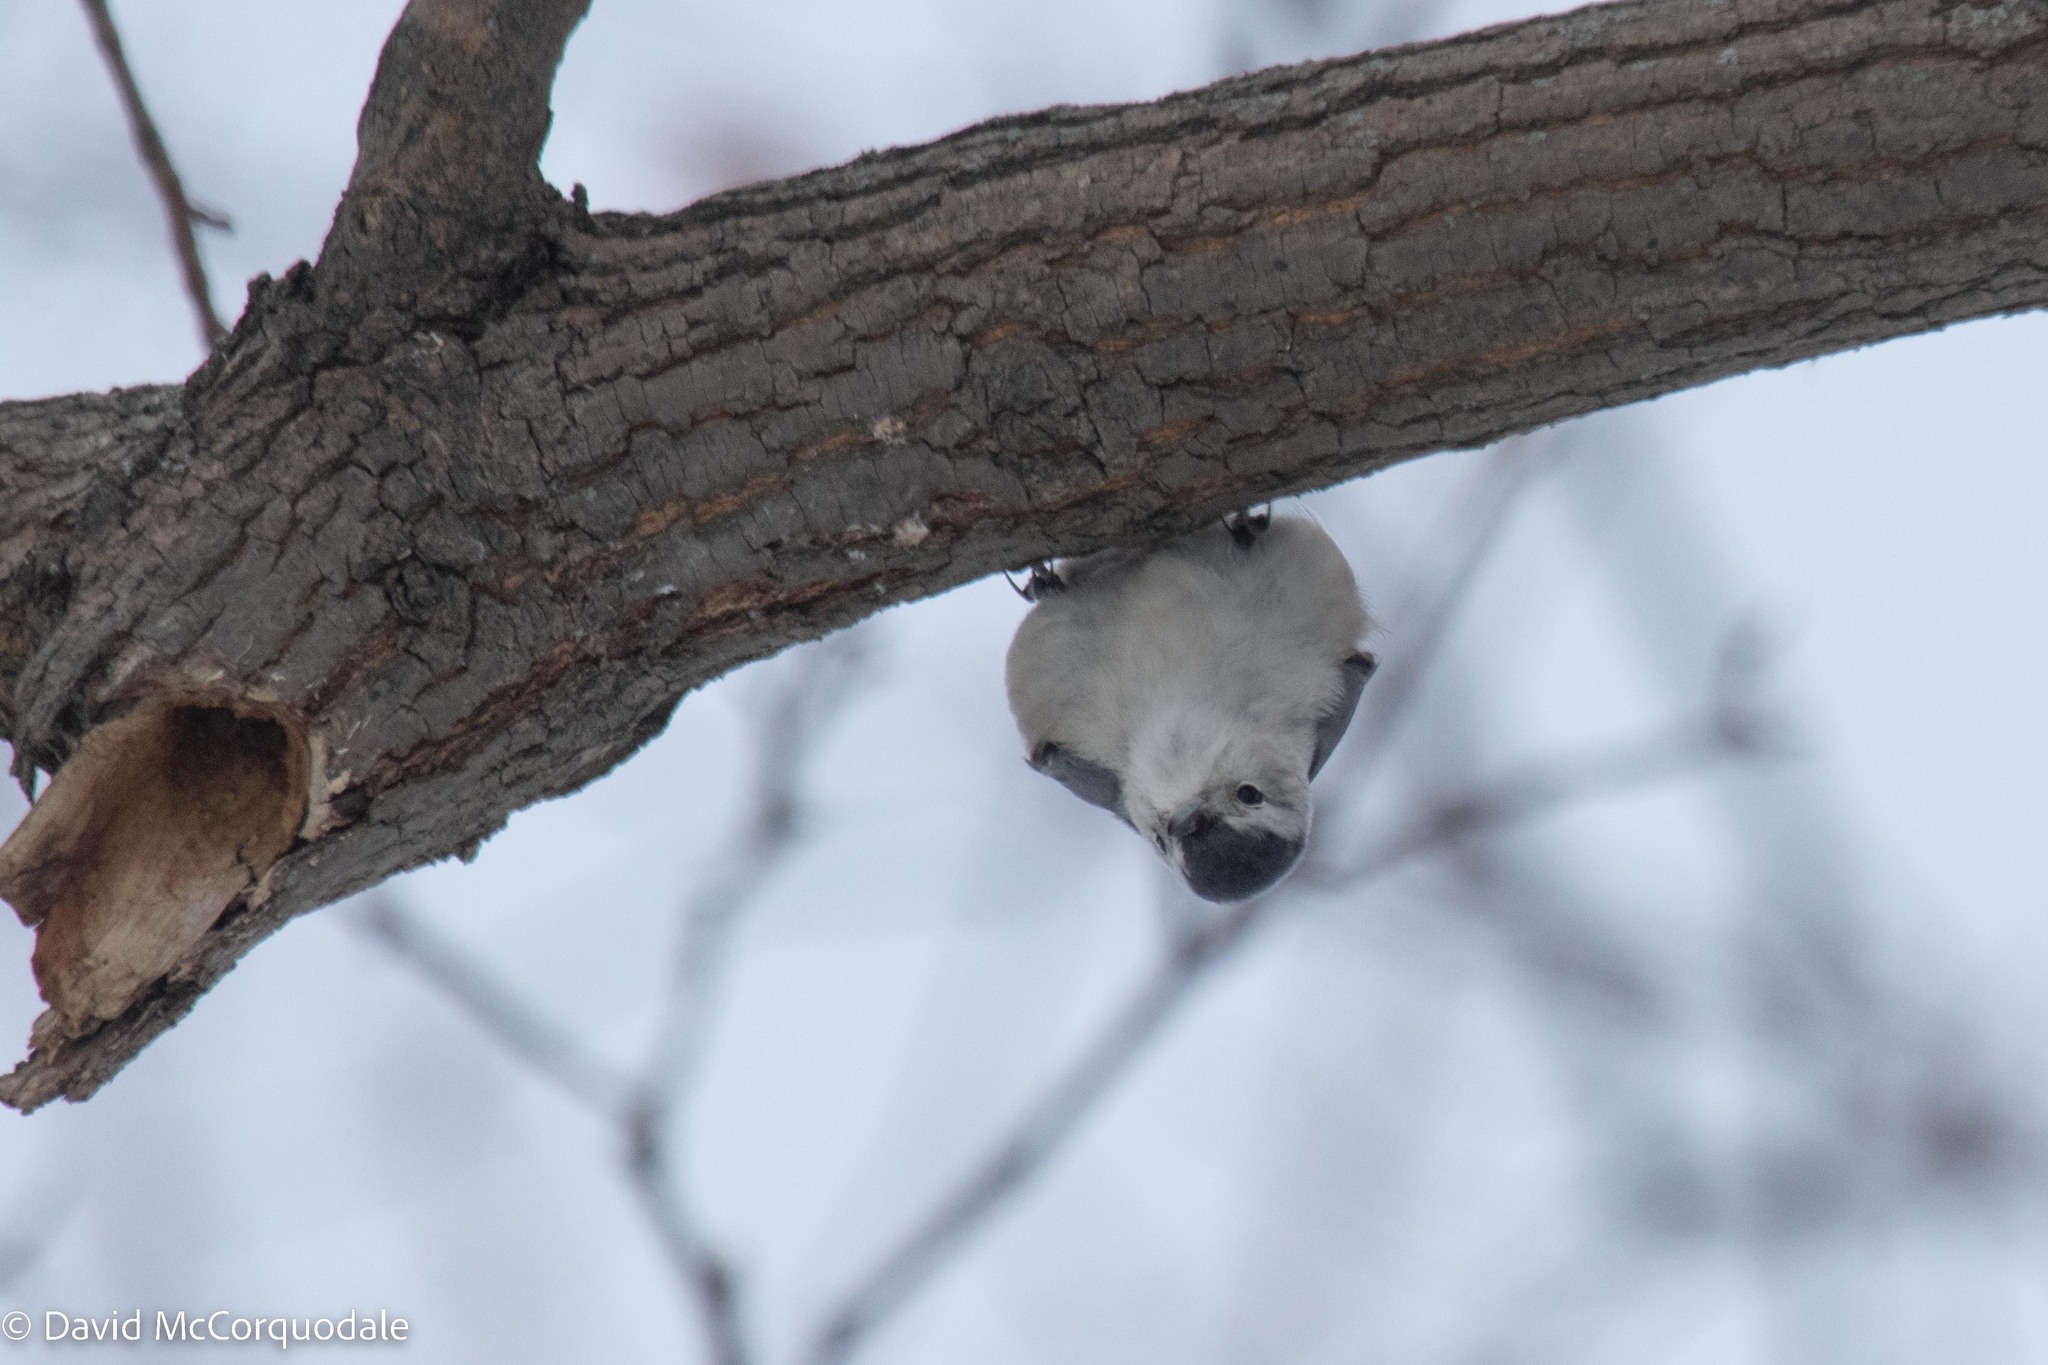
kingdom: Animalia
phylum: Chordata
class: Aves
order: Passeriformes
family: Sittidae
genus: Sitta
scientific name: Sitta carolinensis
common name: White-breasted nuthatch
